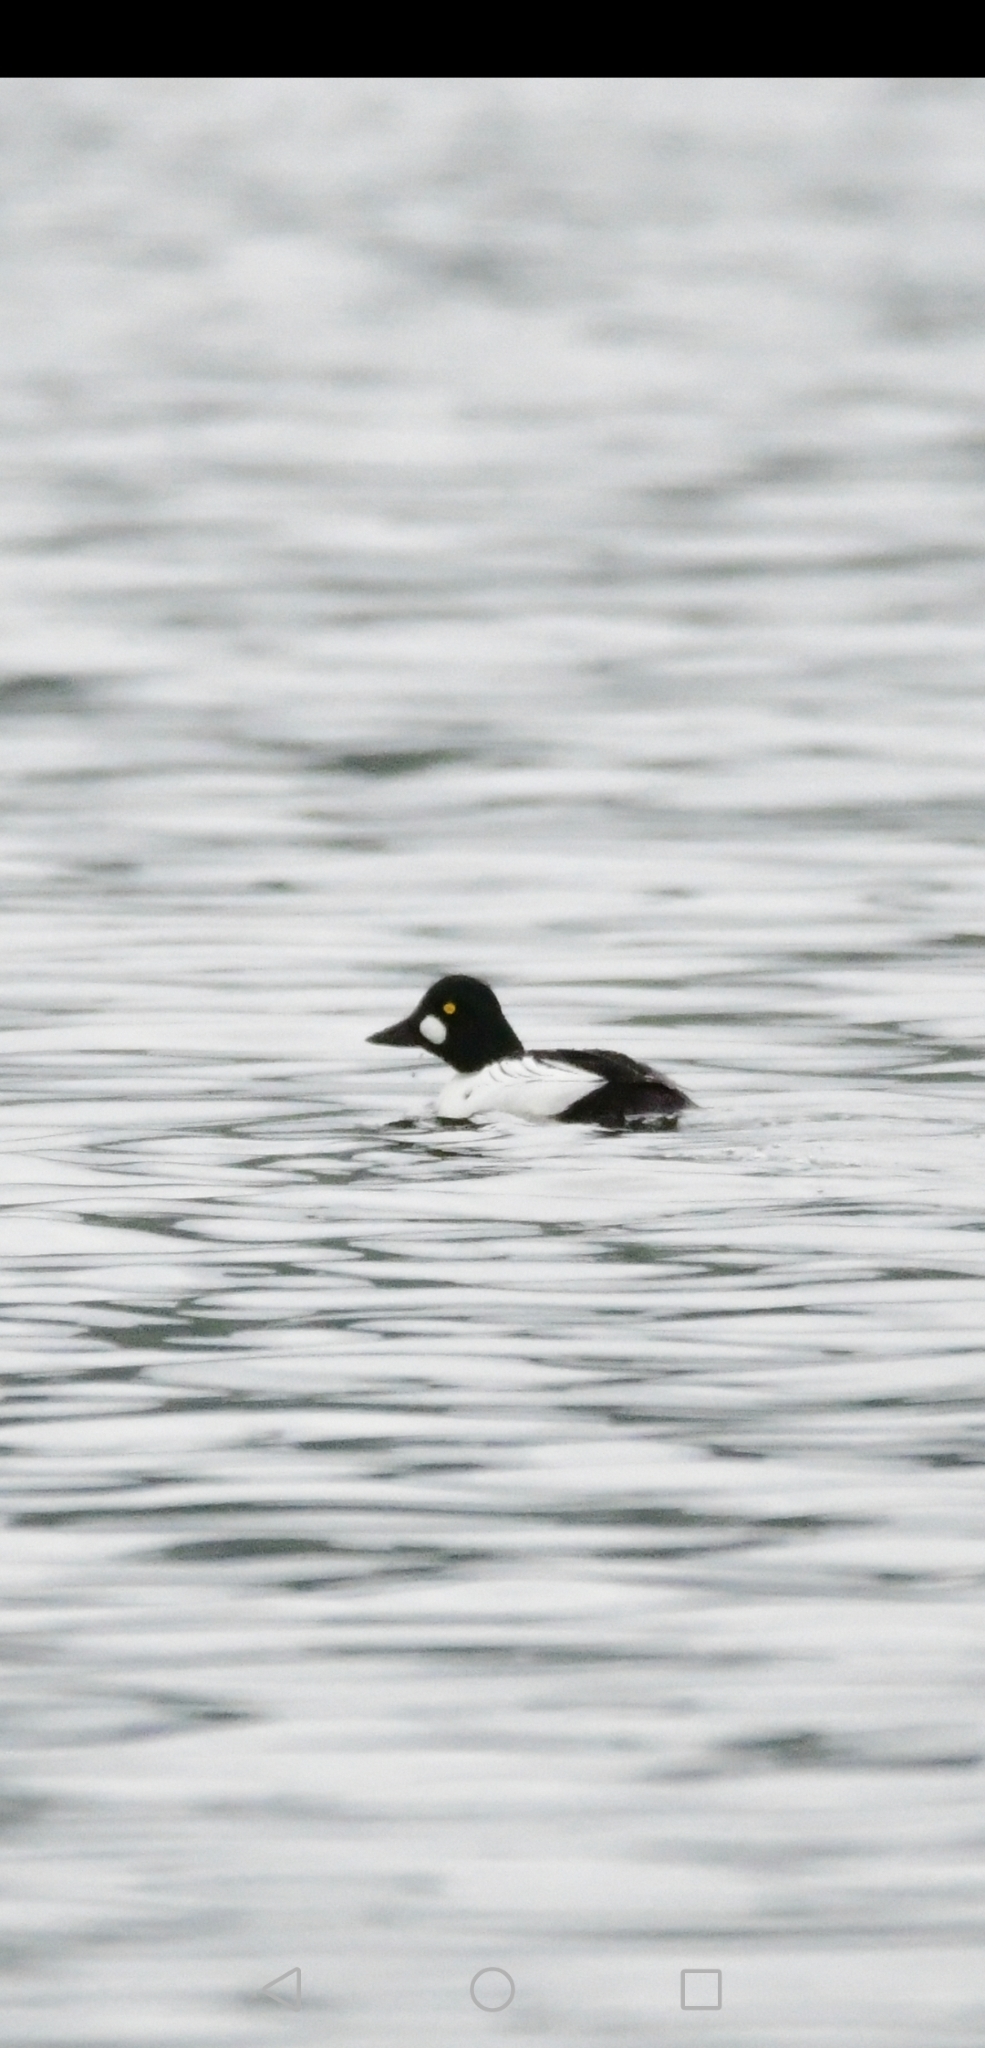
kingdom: Animalia
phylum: Chordata
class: Aves
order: Anseriformes
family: Anatidae
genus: Bucephala
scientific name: Bucephala clangula
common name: Common goldeneye
